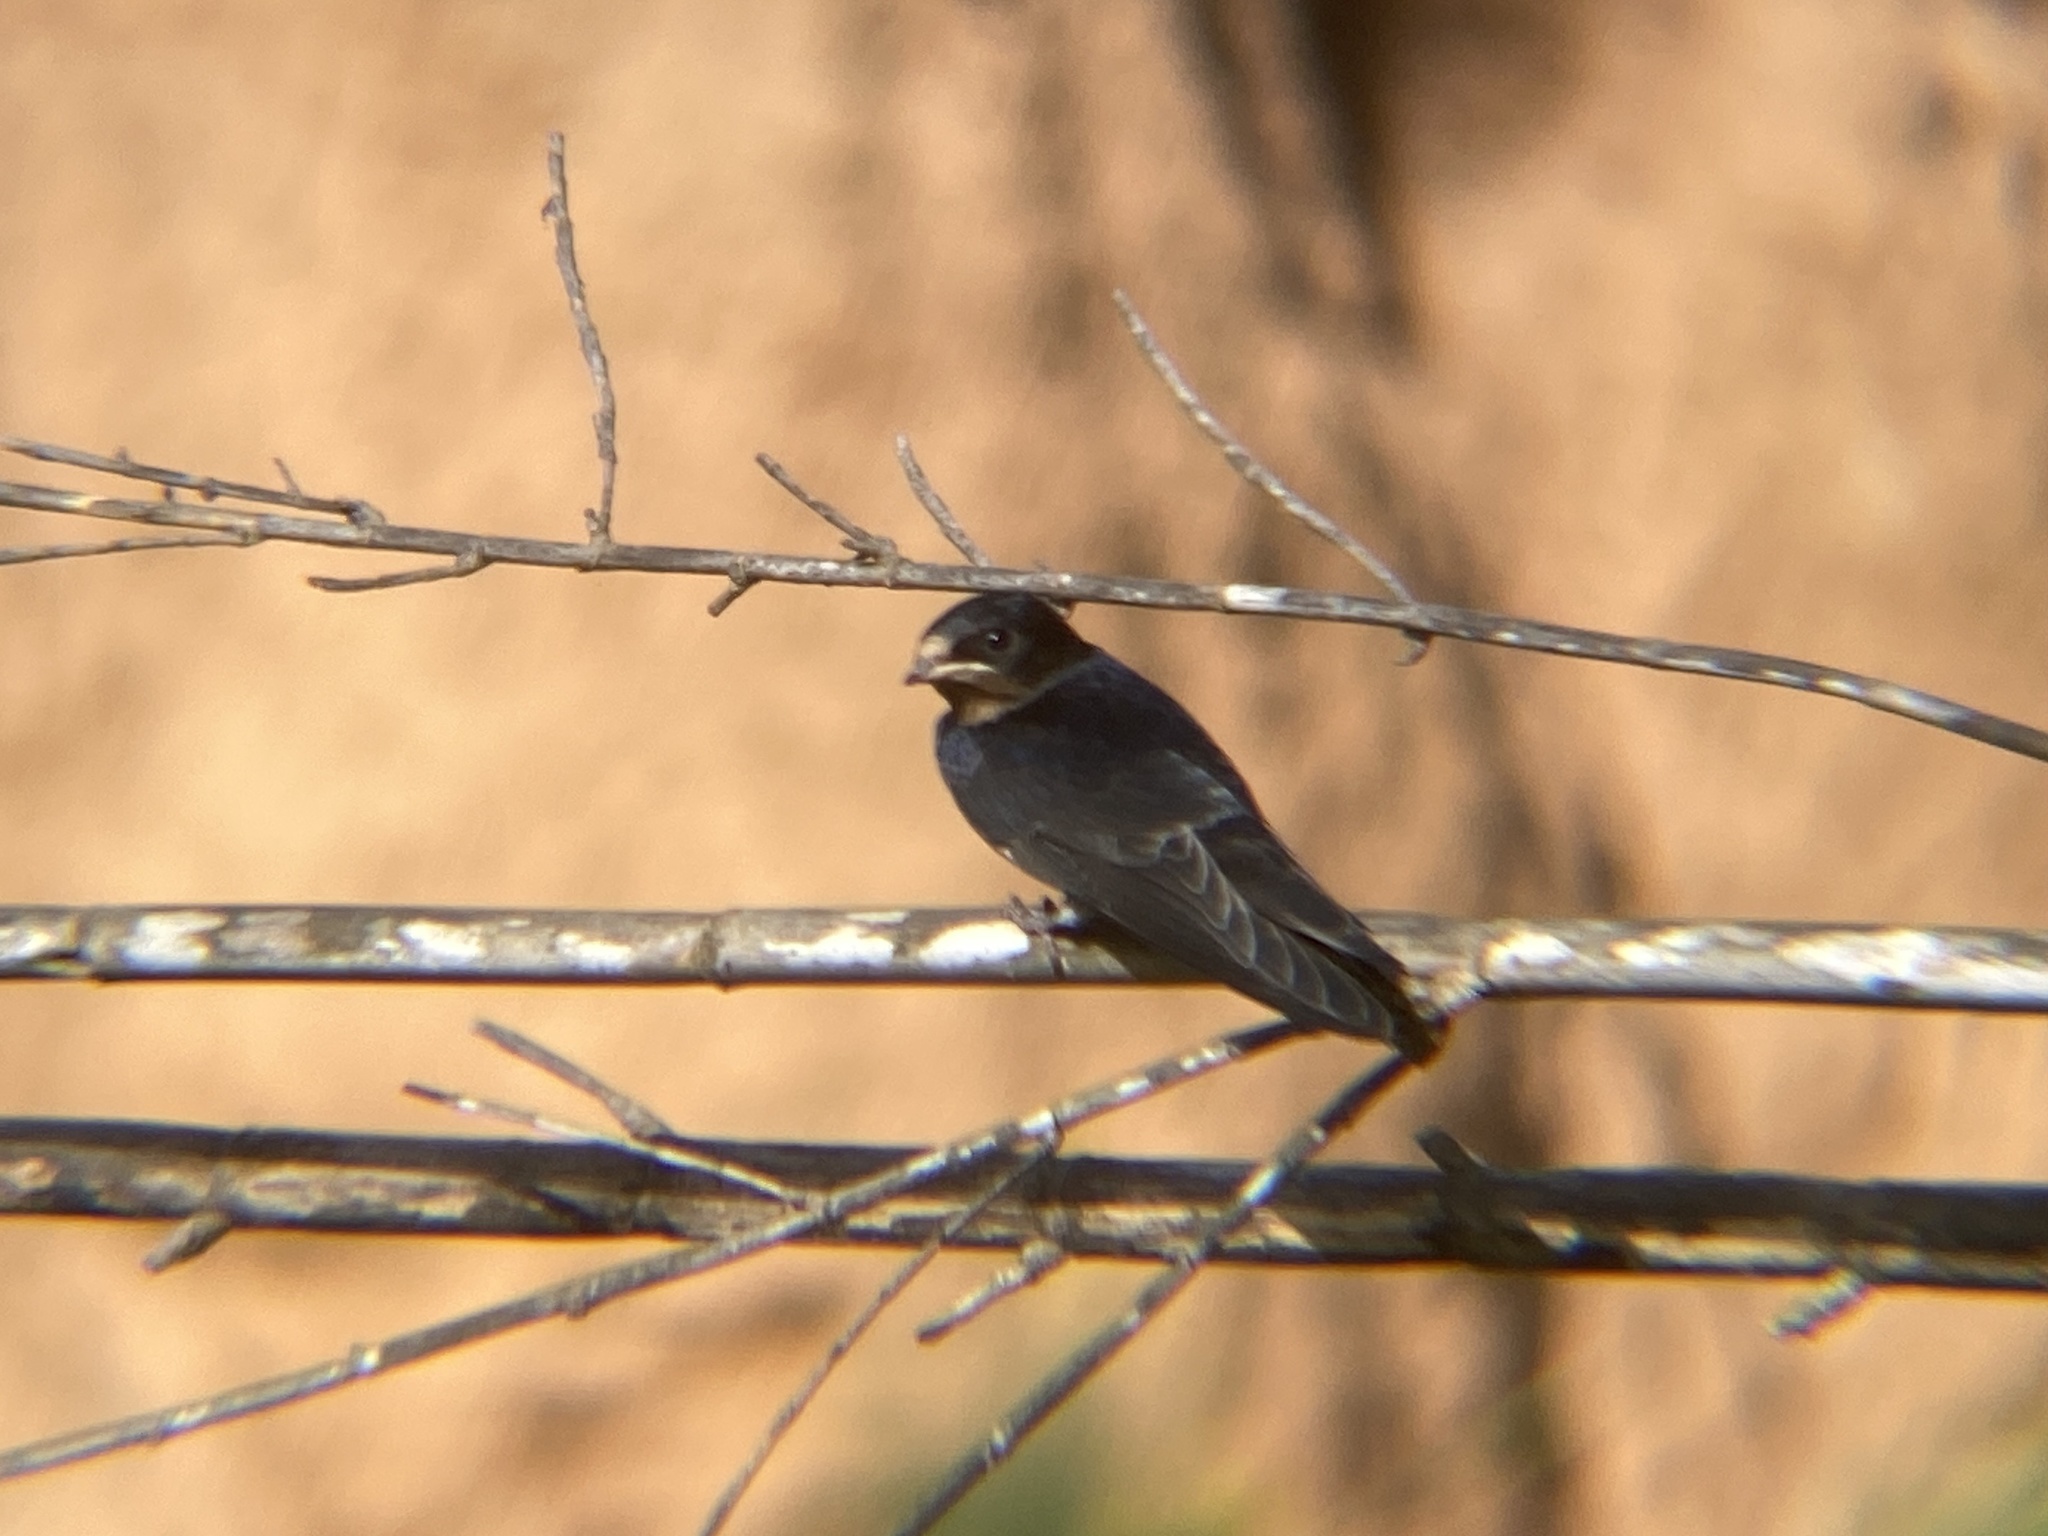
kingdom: Animalia
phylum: Chordata
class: Aves
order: Passeriformes
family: Hirundinidae
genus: Hirundo
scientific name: Hirundo rustica
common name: Barn swallow
